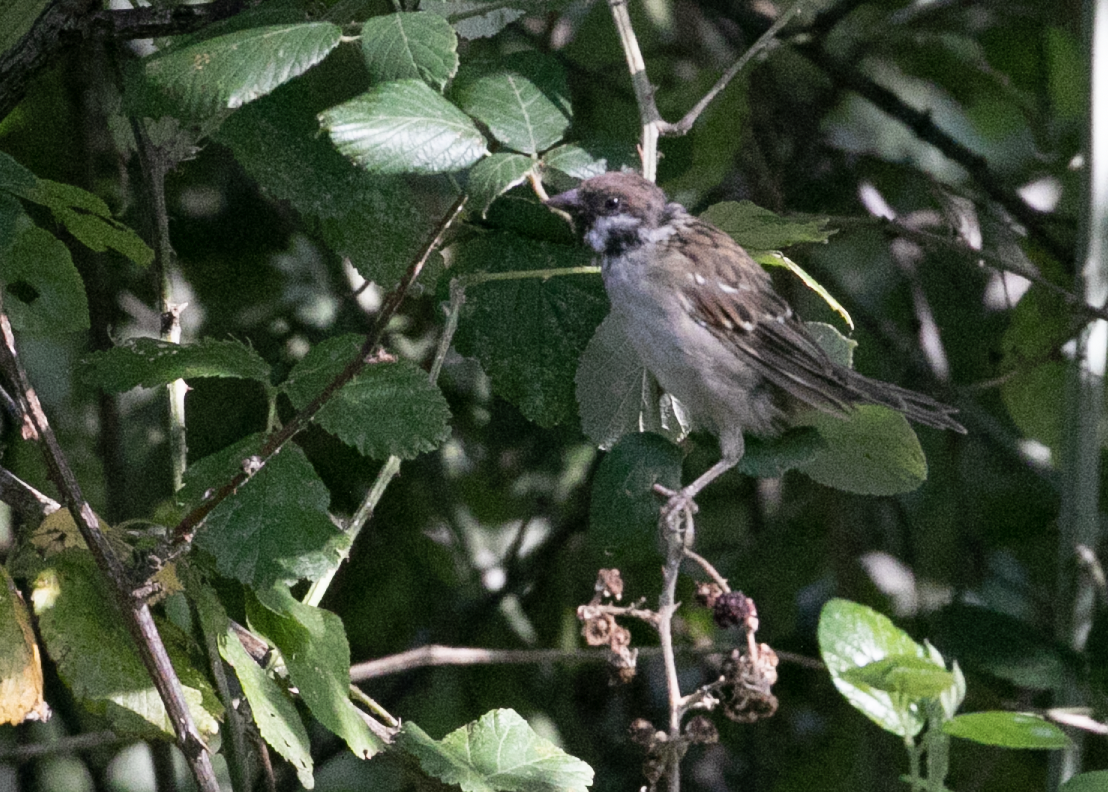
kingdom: Animalia
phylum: Chordata
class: Aves
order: Passeriformes
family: Passeridae
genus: Passer
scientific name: Passer montanus
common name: Eurasian tree sparrow
